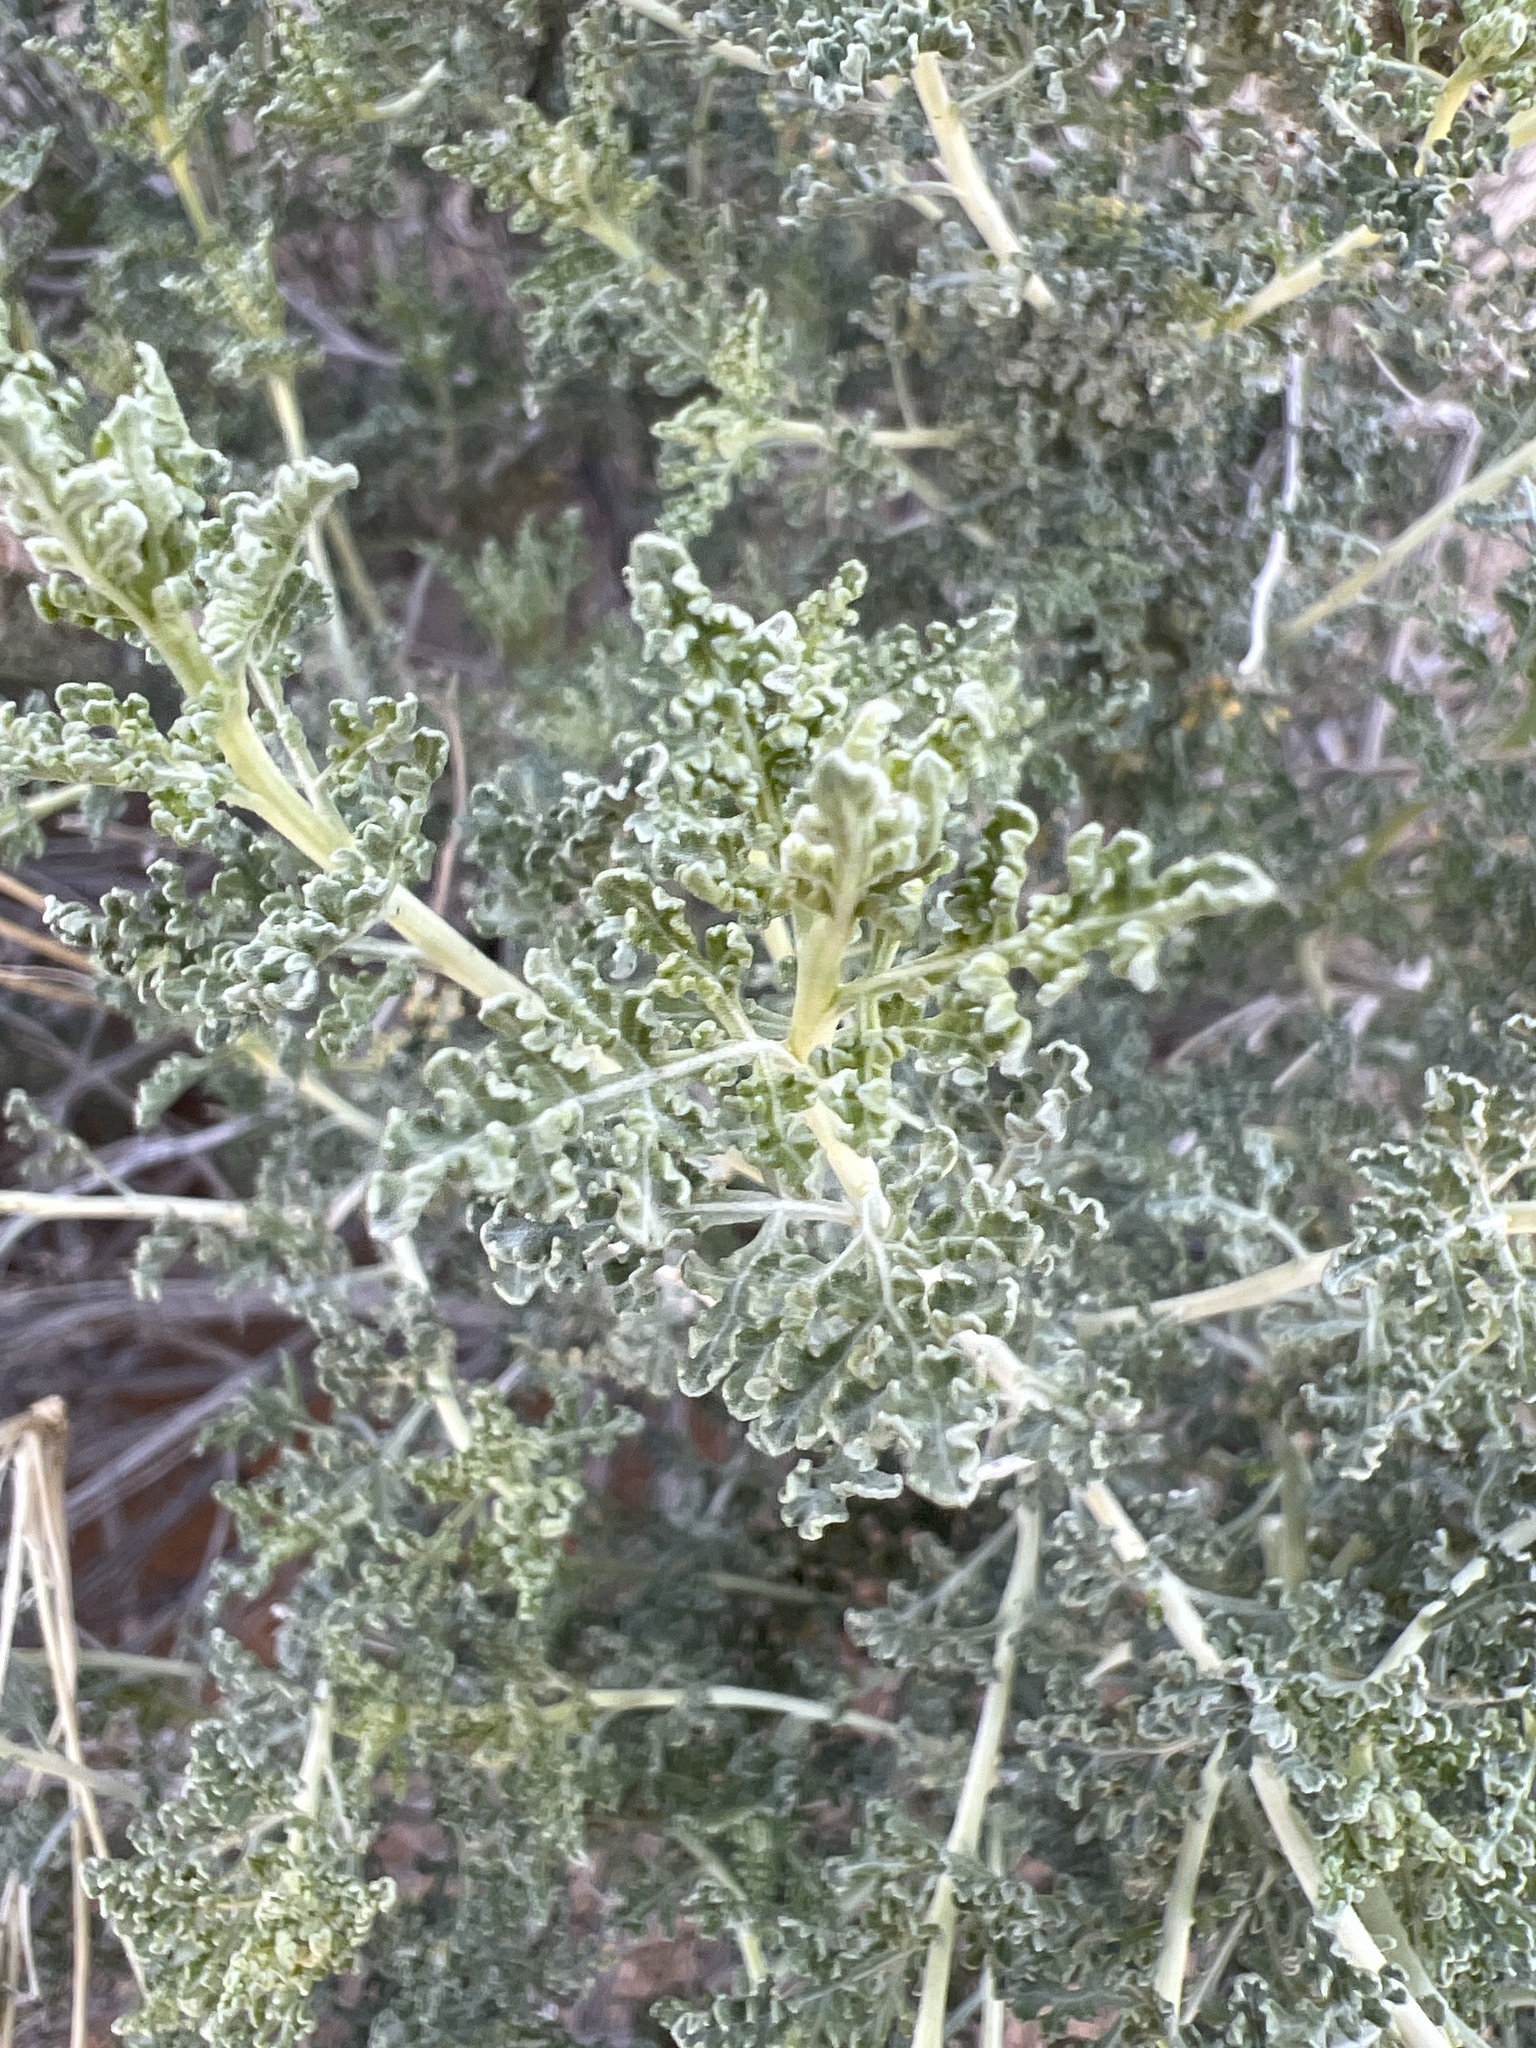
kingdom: Plantae
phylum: Tracheophyta
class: Magnoliopsida
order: Asterales
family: Asteraceae
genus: Ambrosia
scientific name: Ambrosia dumosa
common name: Bur-sage
